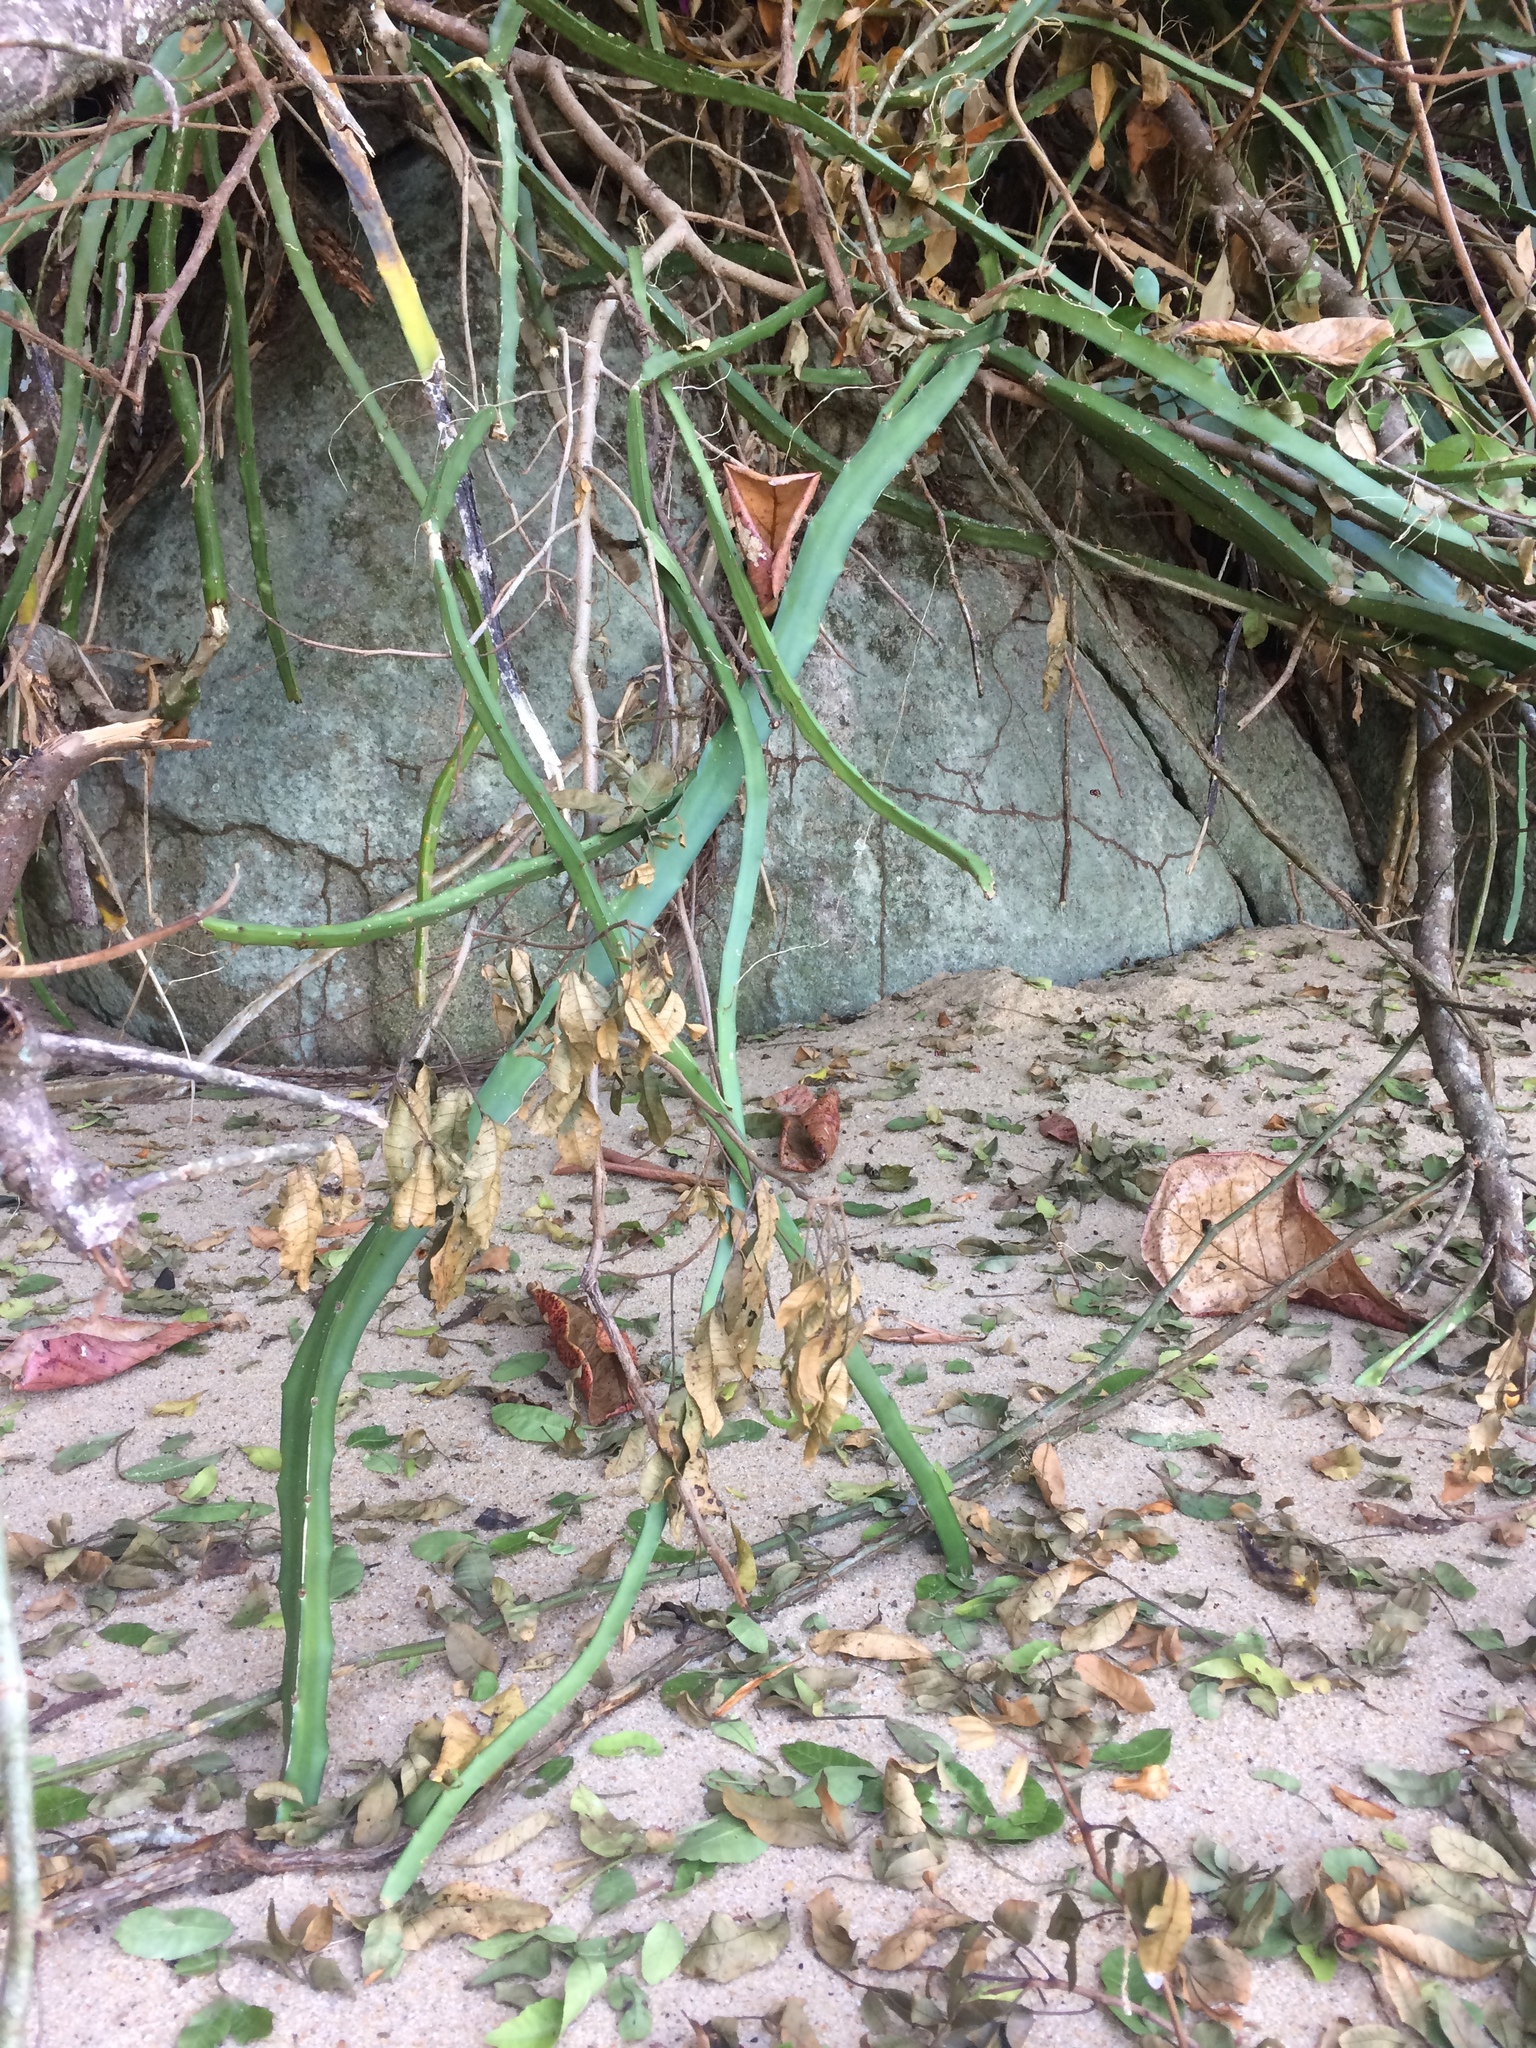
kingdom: Plantae
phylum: Tracheophyta
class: Magnoliopsida
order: Caryophyllales
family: Cactaceae
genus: Selenicereus
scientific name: Selenicereus setaceus
